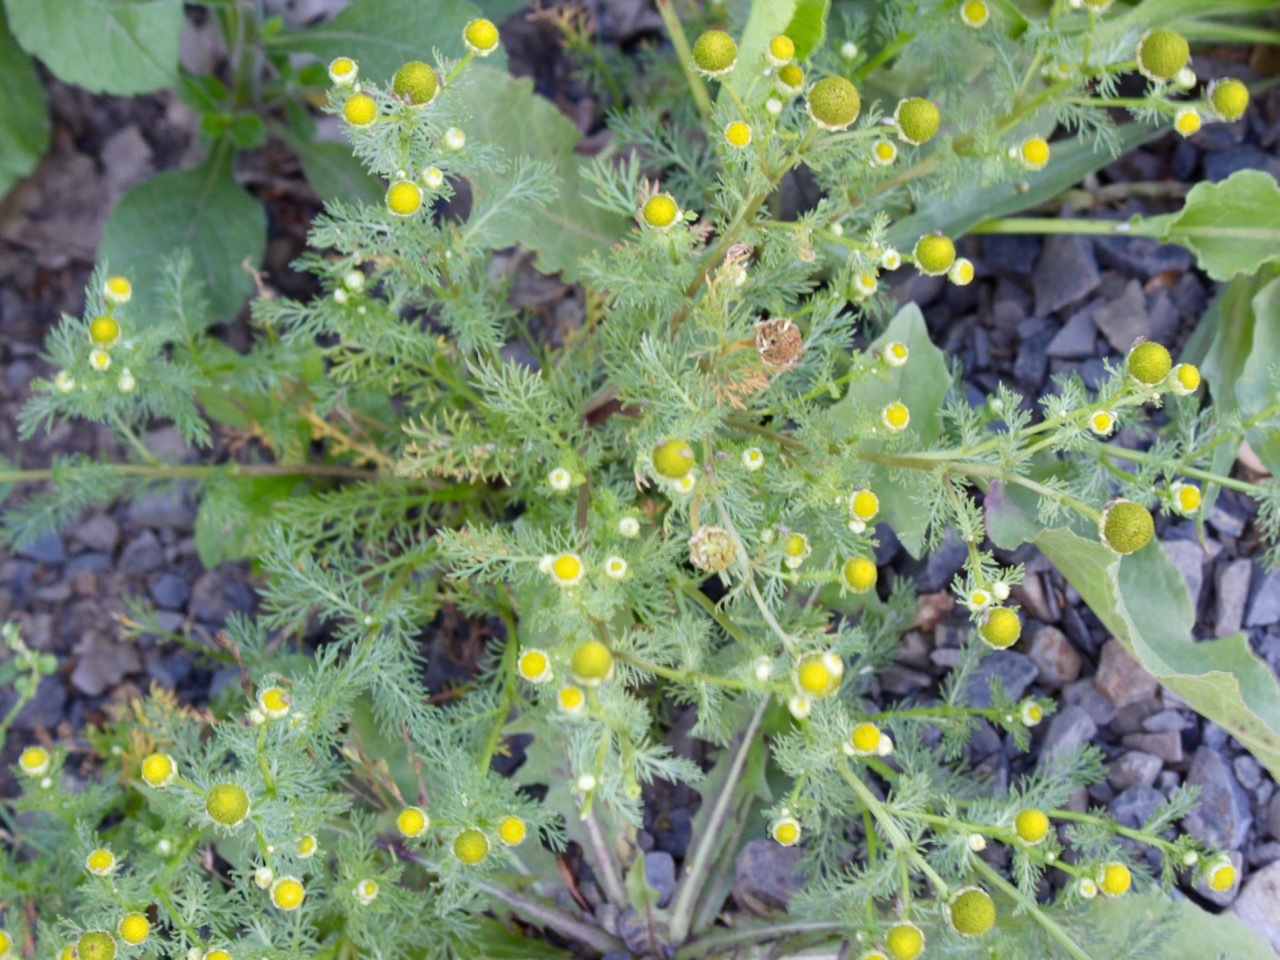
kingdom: Plantae
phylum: Tracheophyta
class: Magnoliopsida
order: Asterales
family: Asteraceae
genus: Matricaria
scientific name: Matricaria discoidea
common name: Disc mayweed
